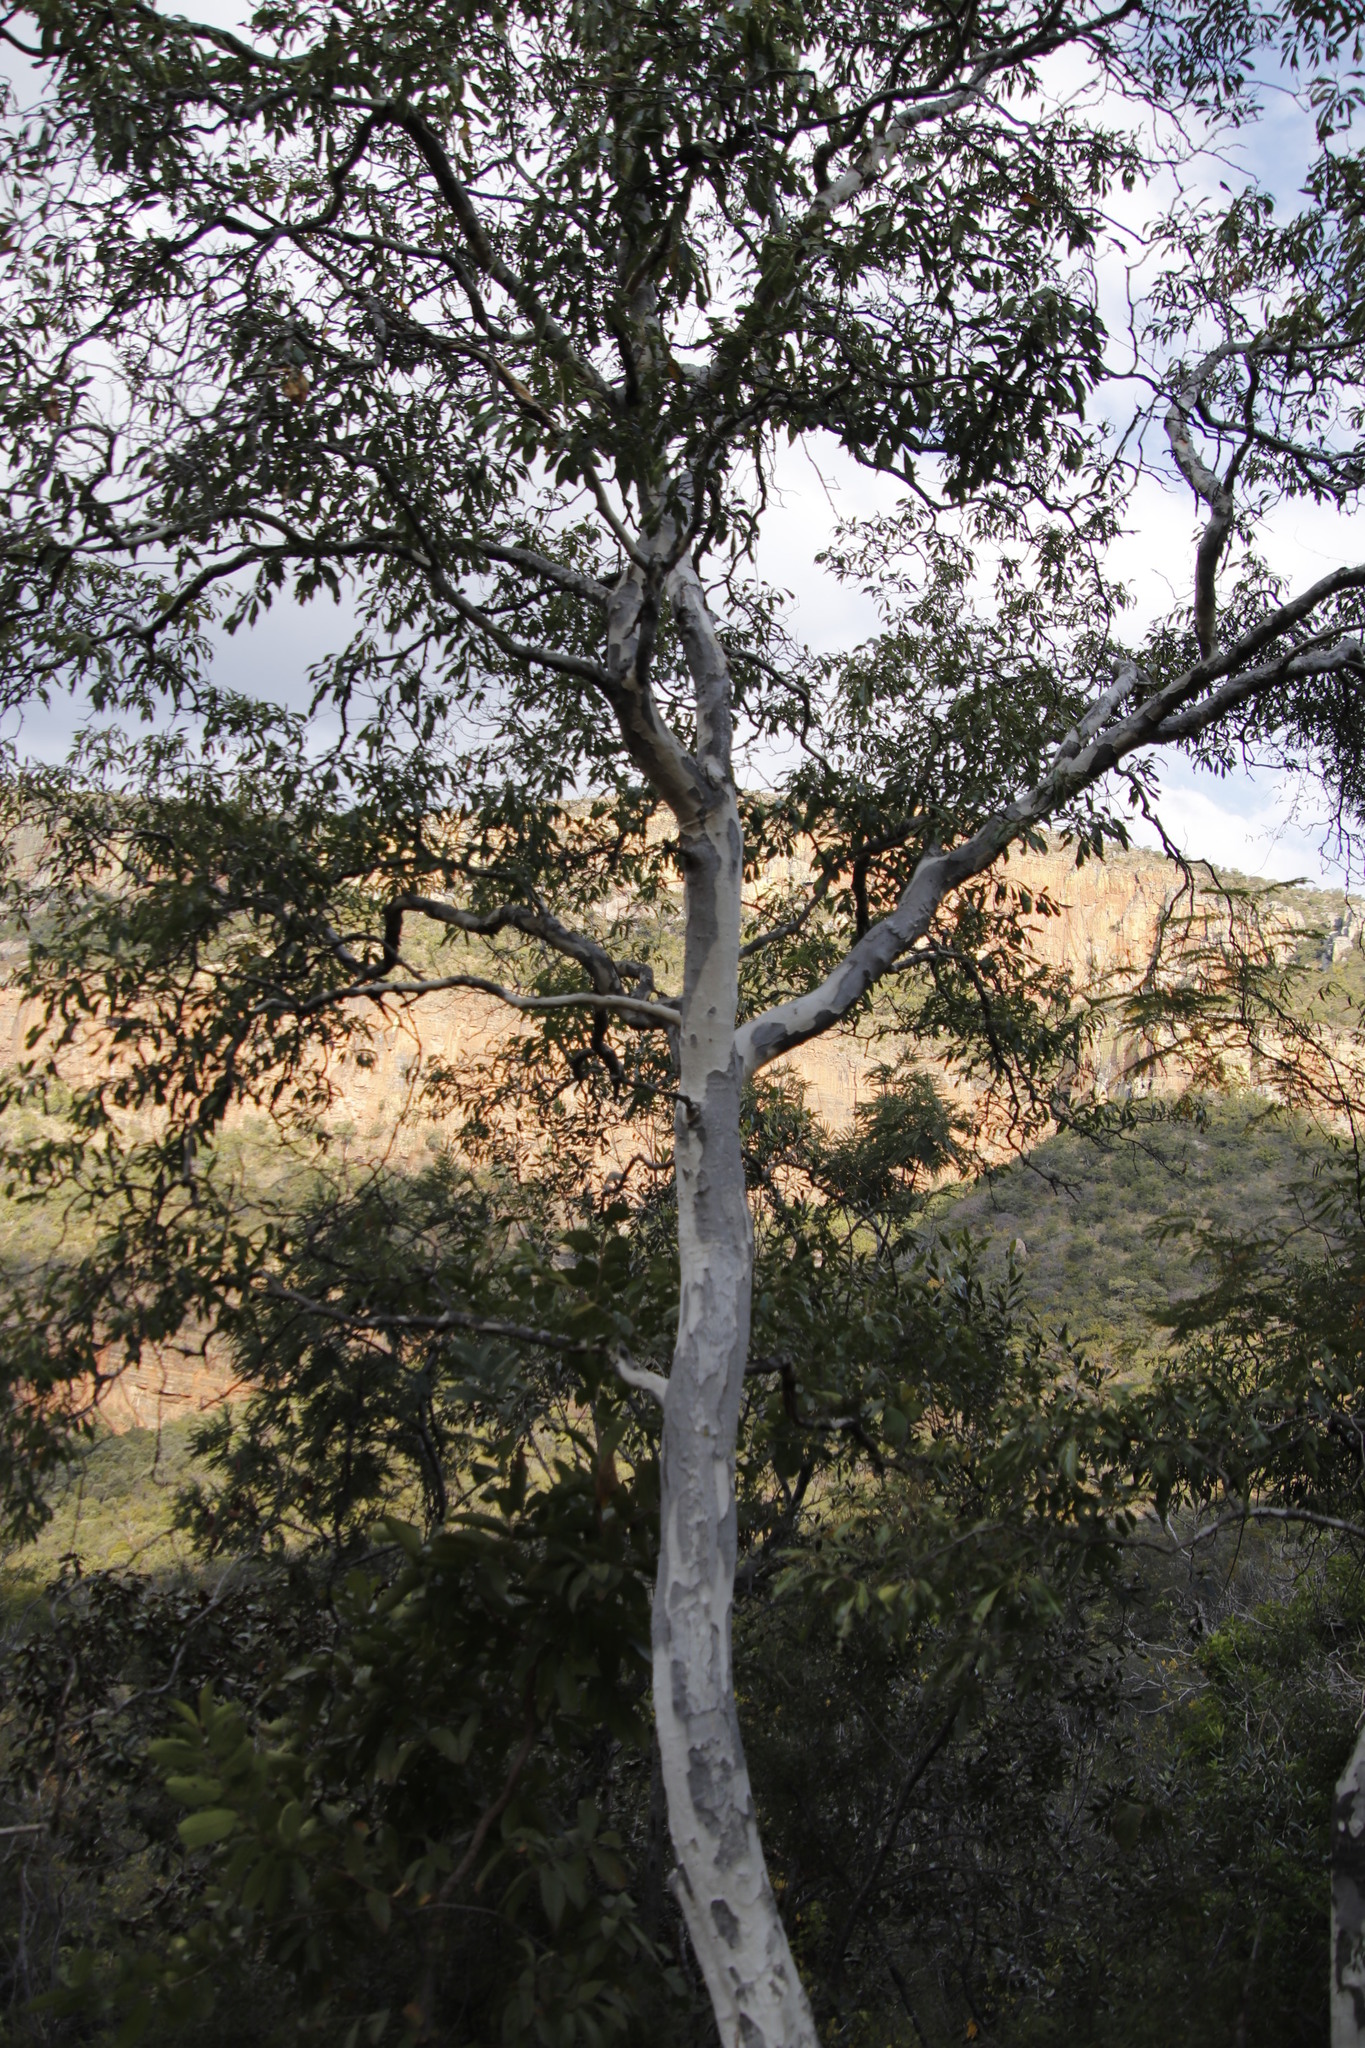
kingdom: Plantae
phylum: Tracheophyta
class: Magnoliopsida
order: Myrtales
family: Myrtaceae
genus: Heteropyxis
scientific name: Heteropyxis natalensis
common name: Lavender tree
